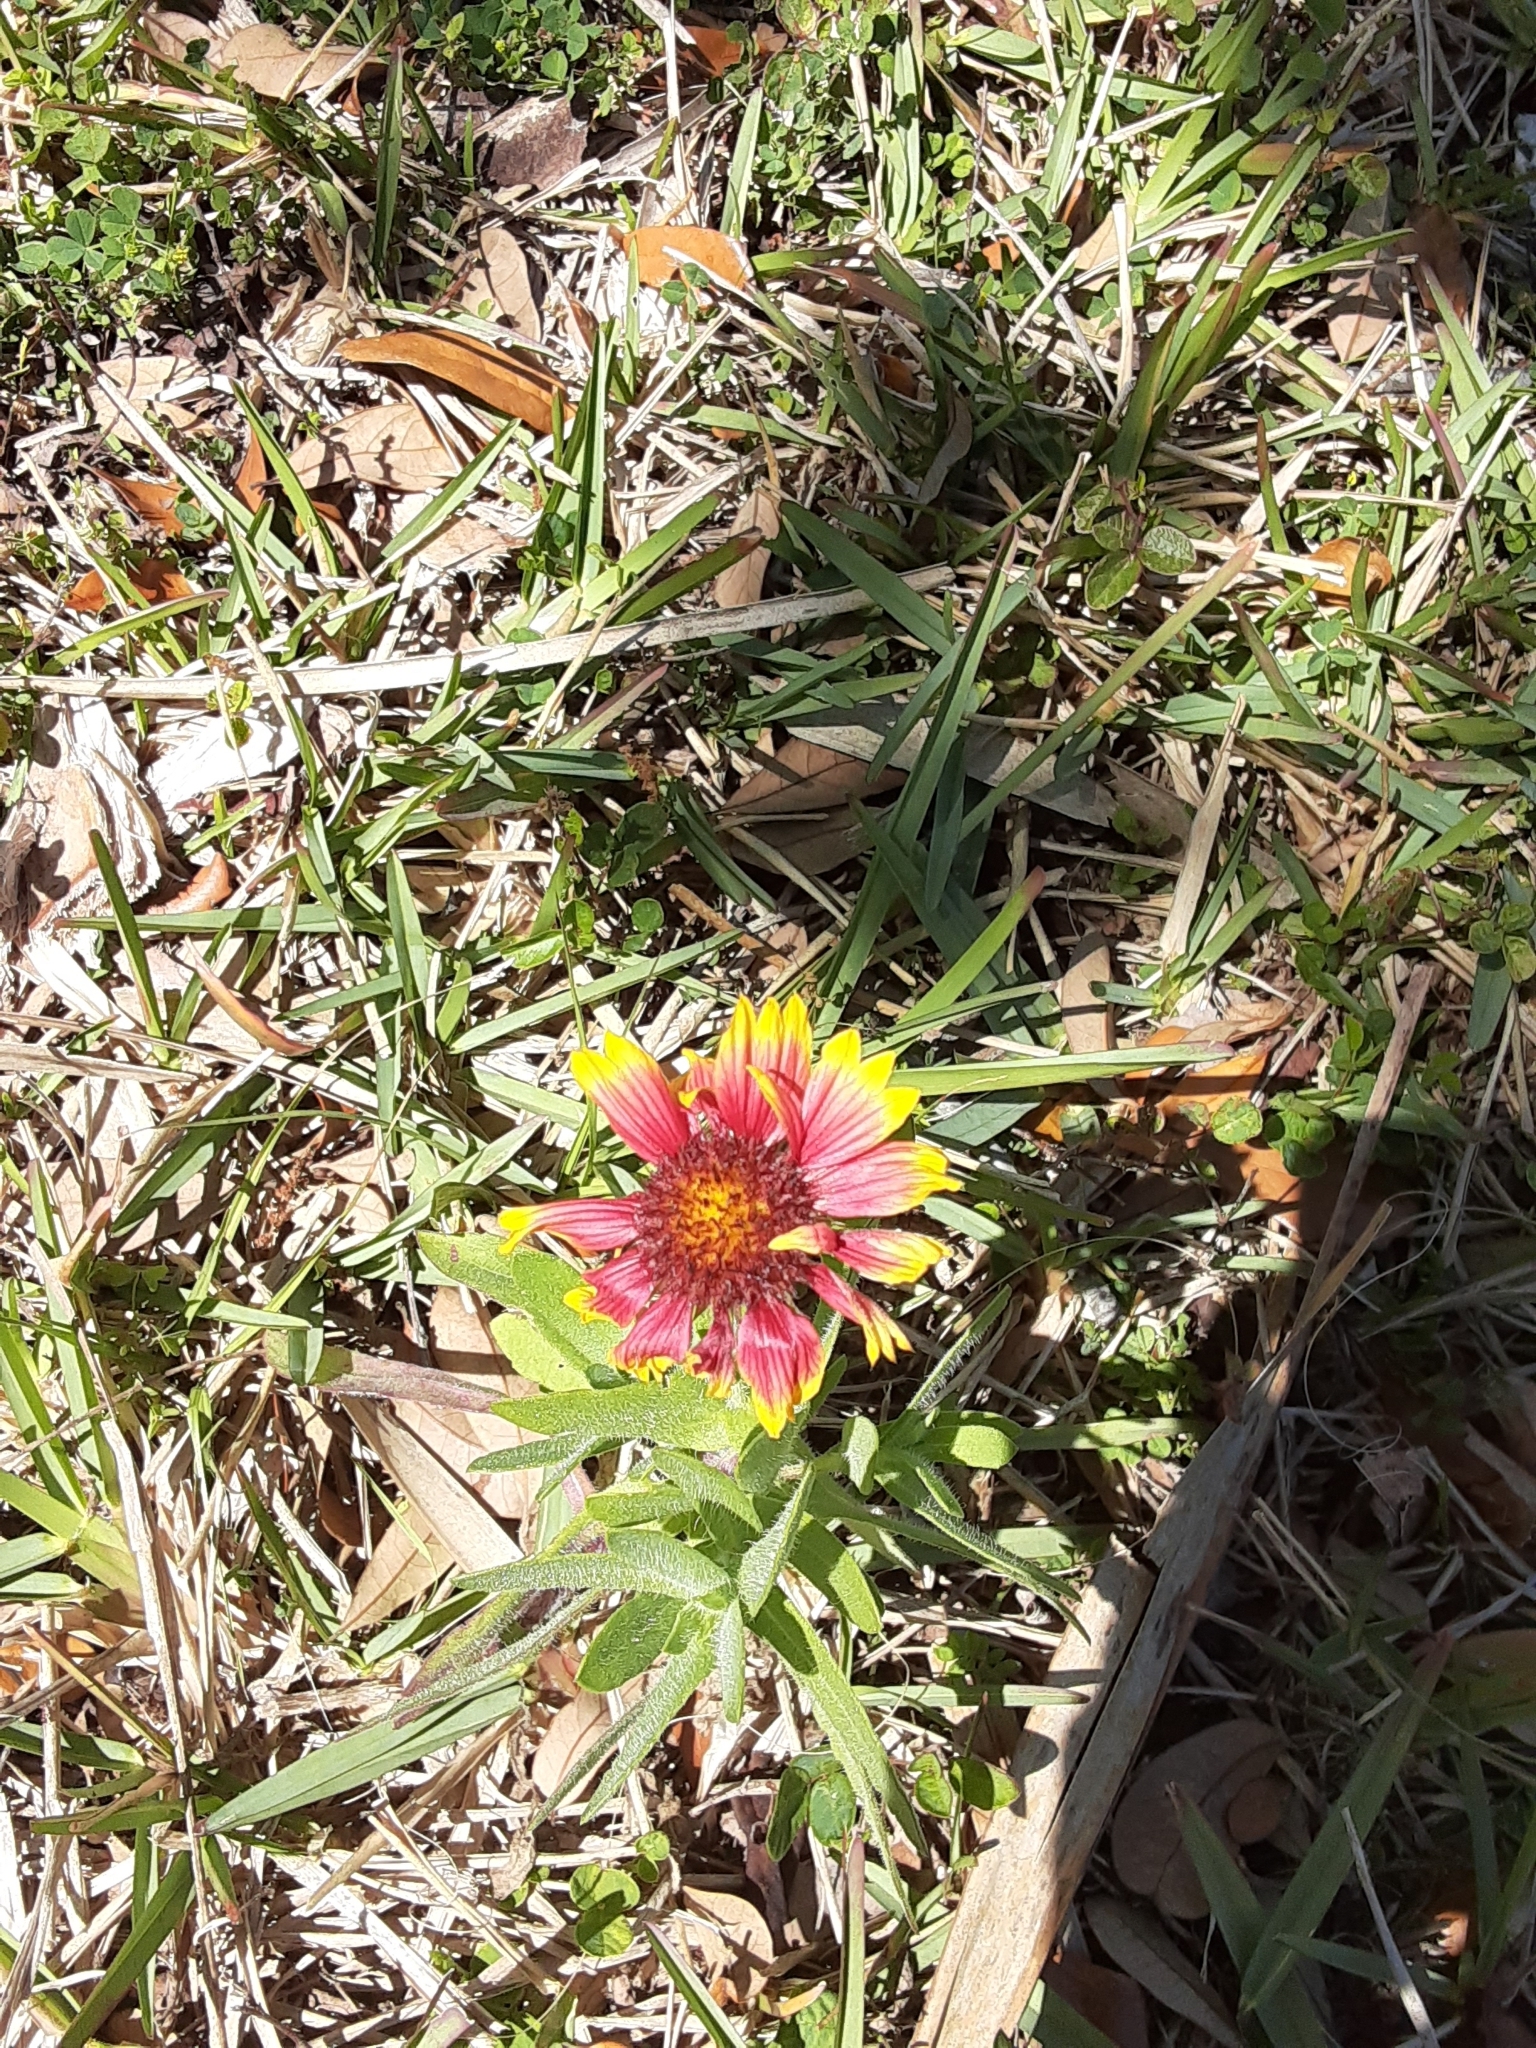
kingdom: Plantae
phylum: Tracheophyta
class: Magnoliopsida
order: Asterales
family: Asteraceae
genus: Gaillardia
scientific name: Gaillardia pulchella
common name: Firewheel
